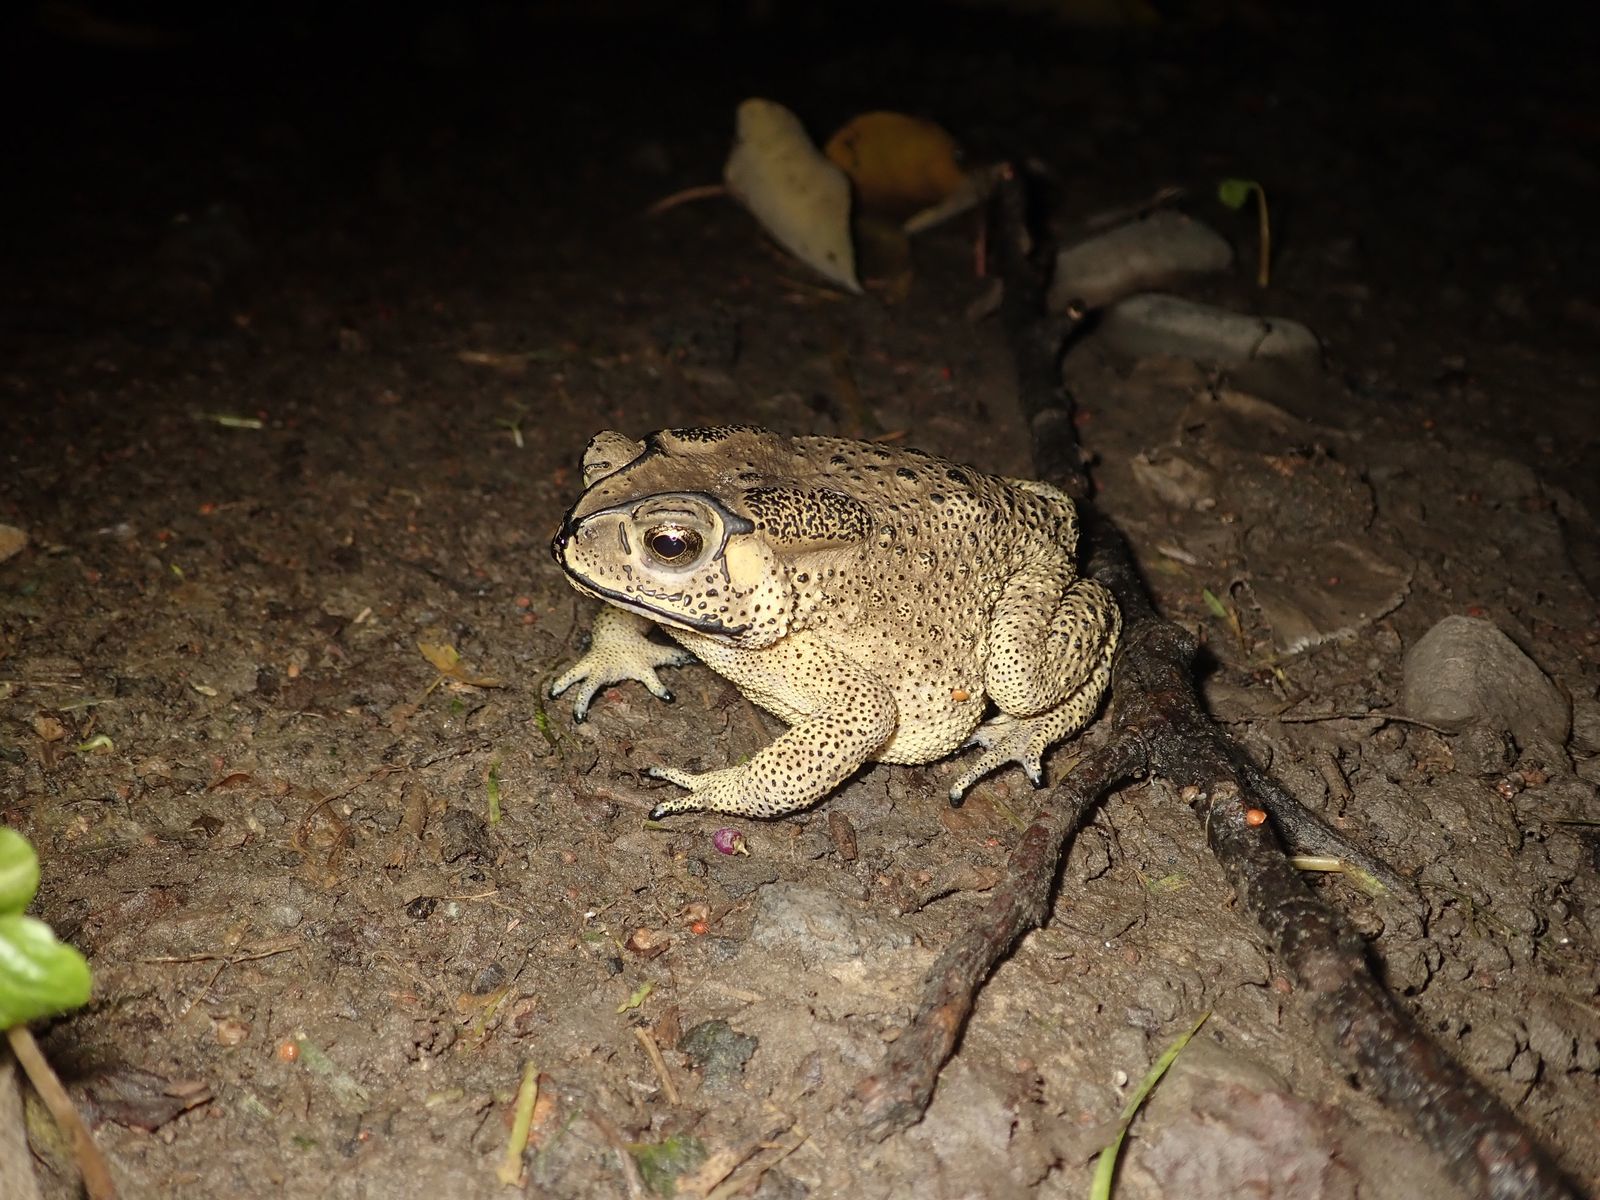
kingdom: Animalia
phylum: Chordata
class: Amphibia
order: Anura
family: Bufonidae
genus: Duttaphrynus
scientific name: Duttaphrynus melanostictus
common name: Common sunda toad
